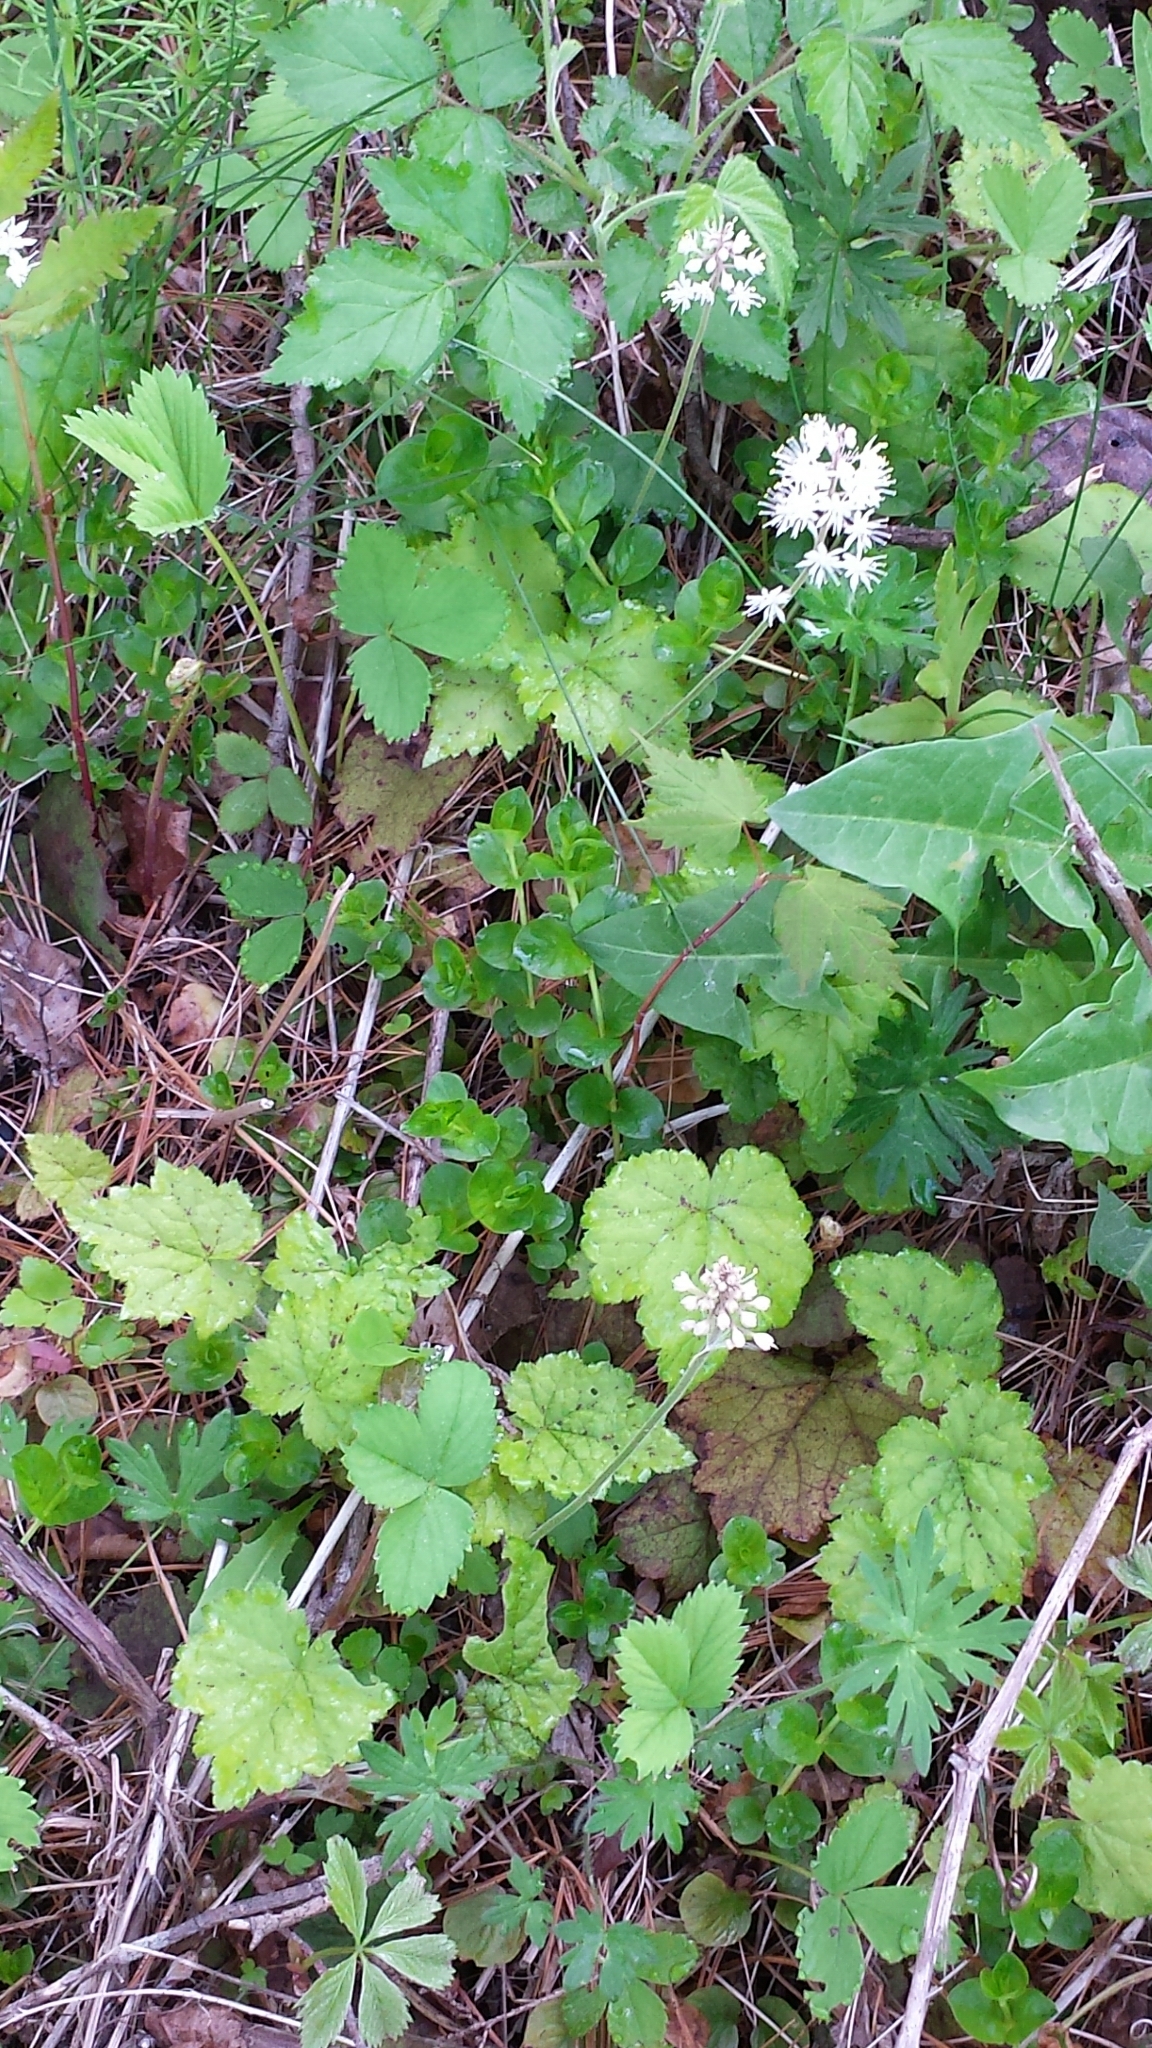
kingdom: Plantae
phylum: Tracheophyta
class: Magnoliopsida
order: Saxifragales
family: Saxifragaceae
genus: Tiarella
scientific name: Tiarella stolonifera
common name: Stoloniferous foamflower
